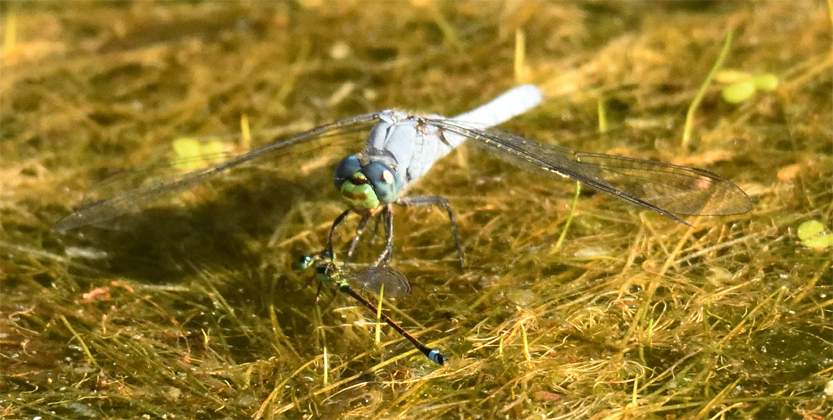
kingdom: Animalia
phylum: Arthropoda
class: Insecta
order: Odonata
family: Libellulidae
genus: Erythemis
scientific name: Erythemis collocata
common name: Western pondhawk
